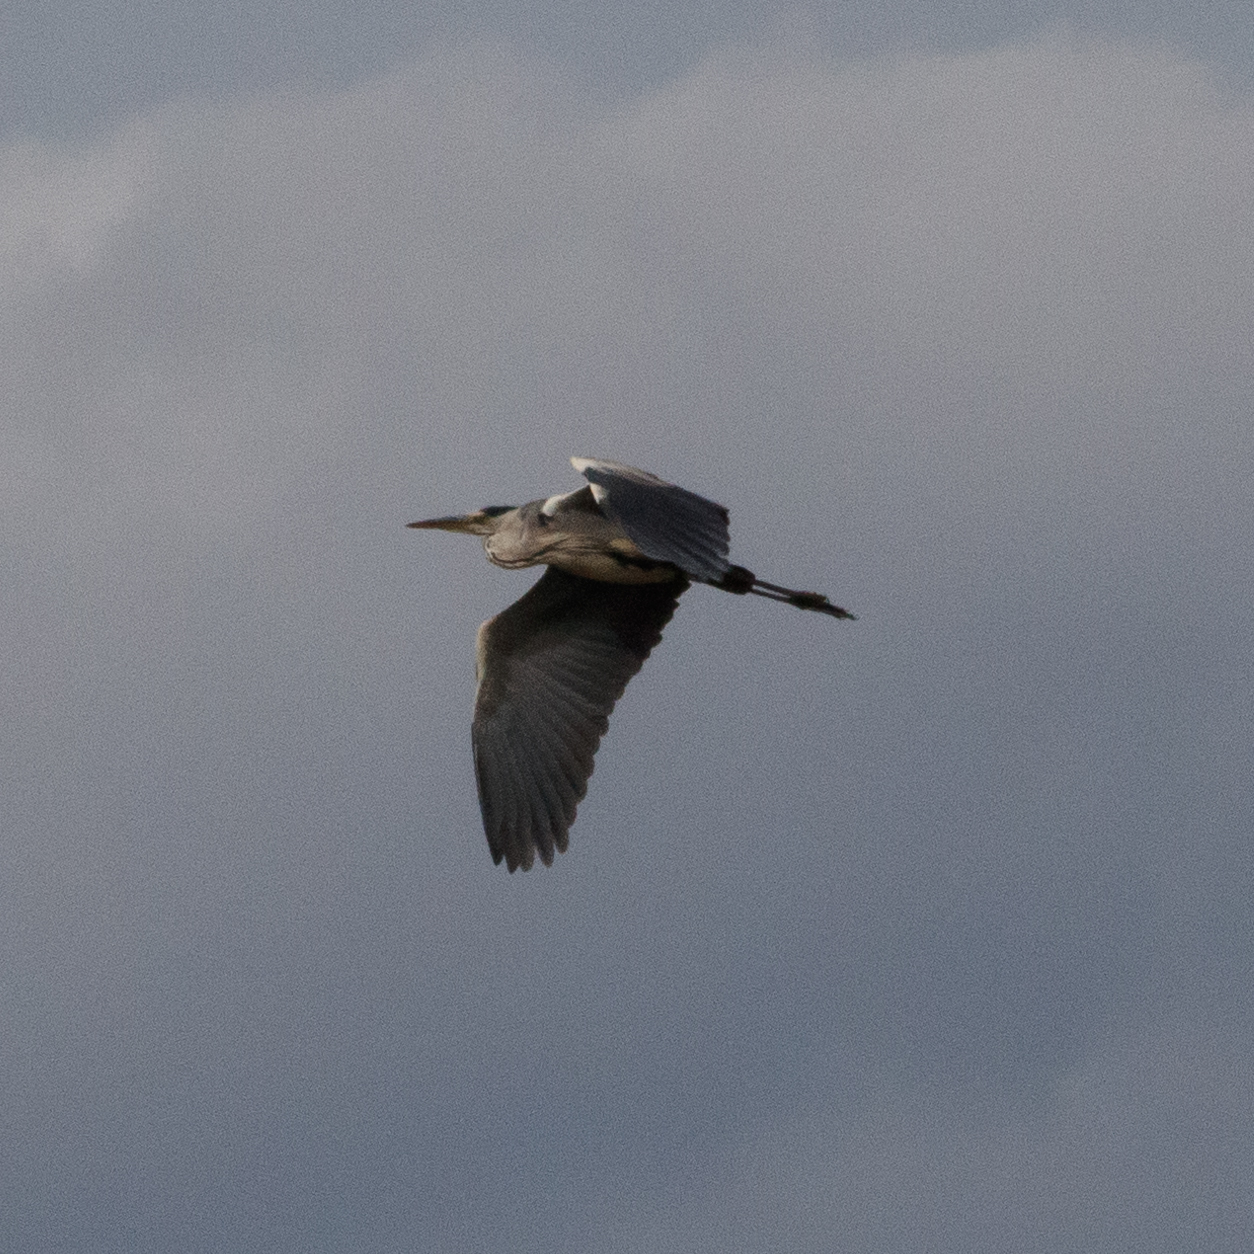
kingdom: Animalia
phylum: Chordata
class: Aves
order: Pelecaniformes
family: Ardeidae
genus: Ardea
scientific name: Ardea cinerea
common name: Grey heron
